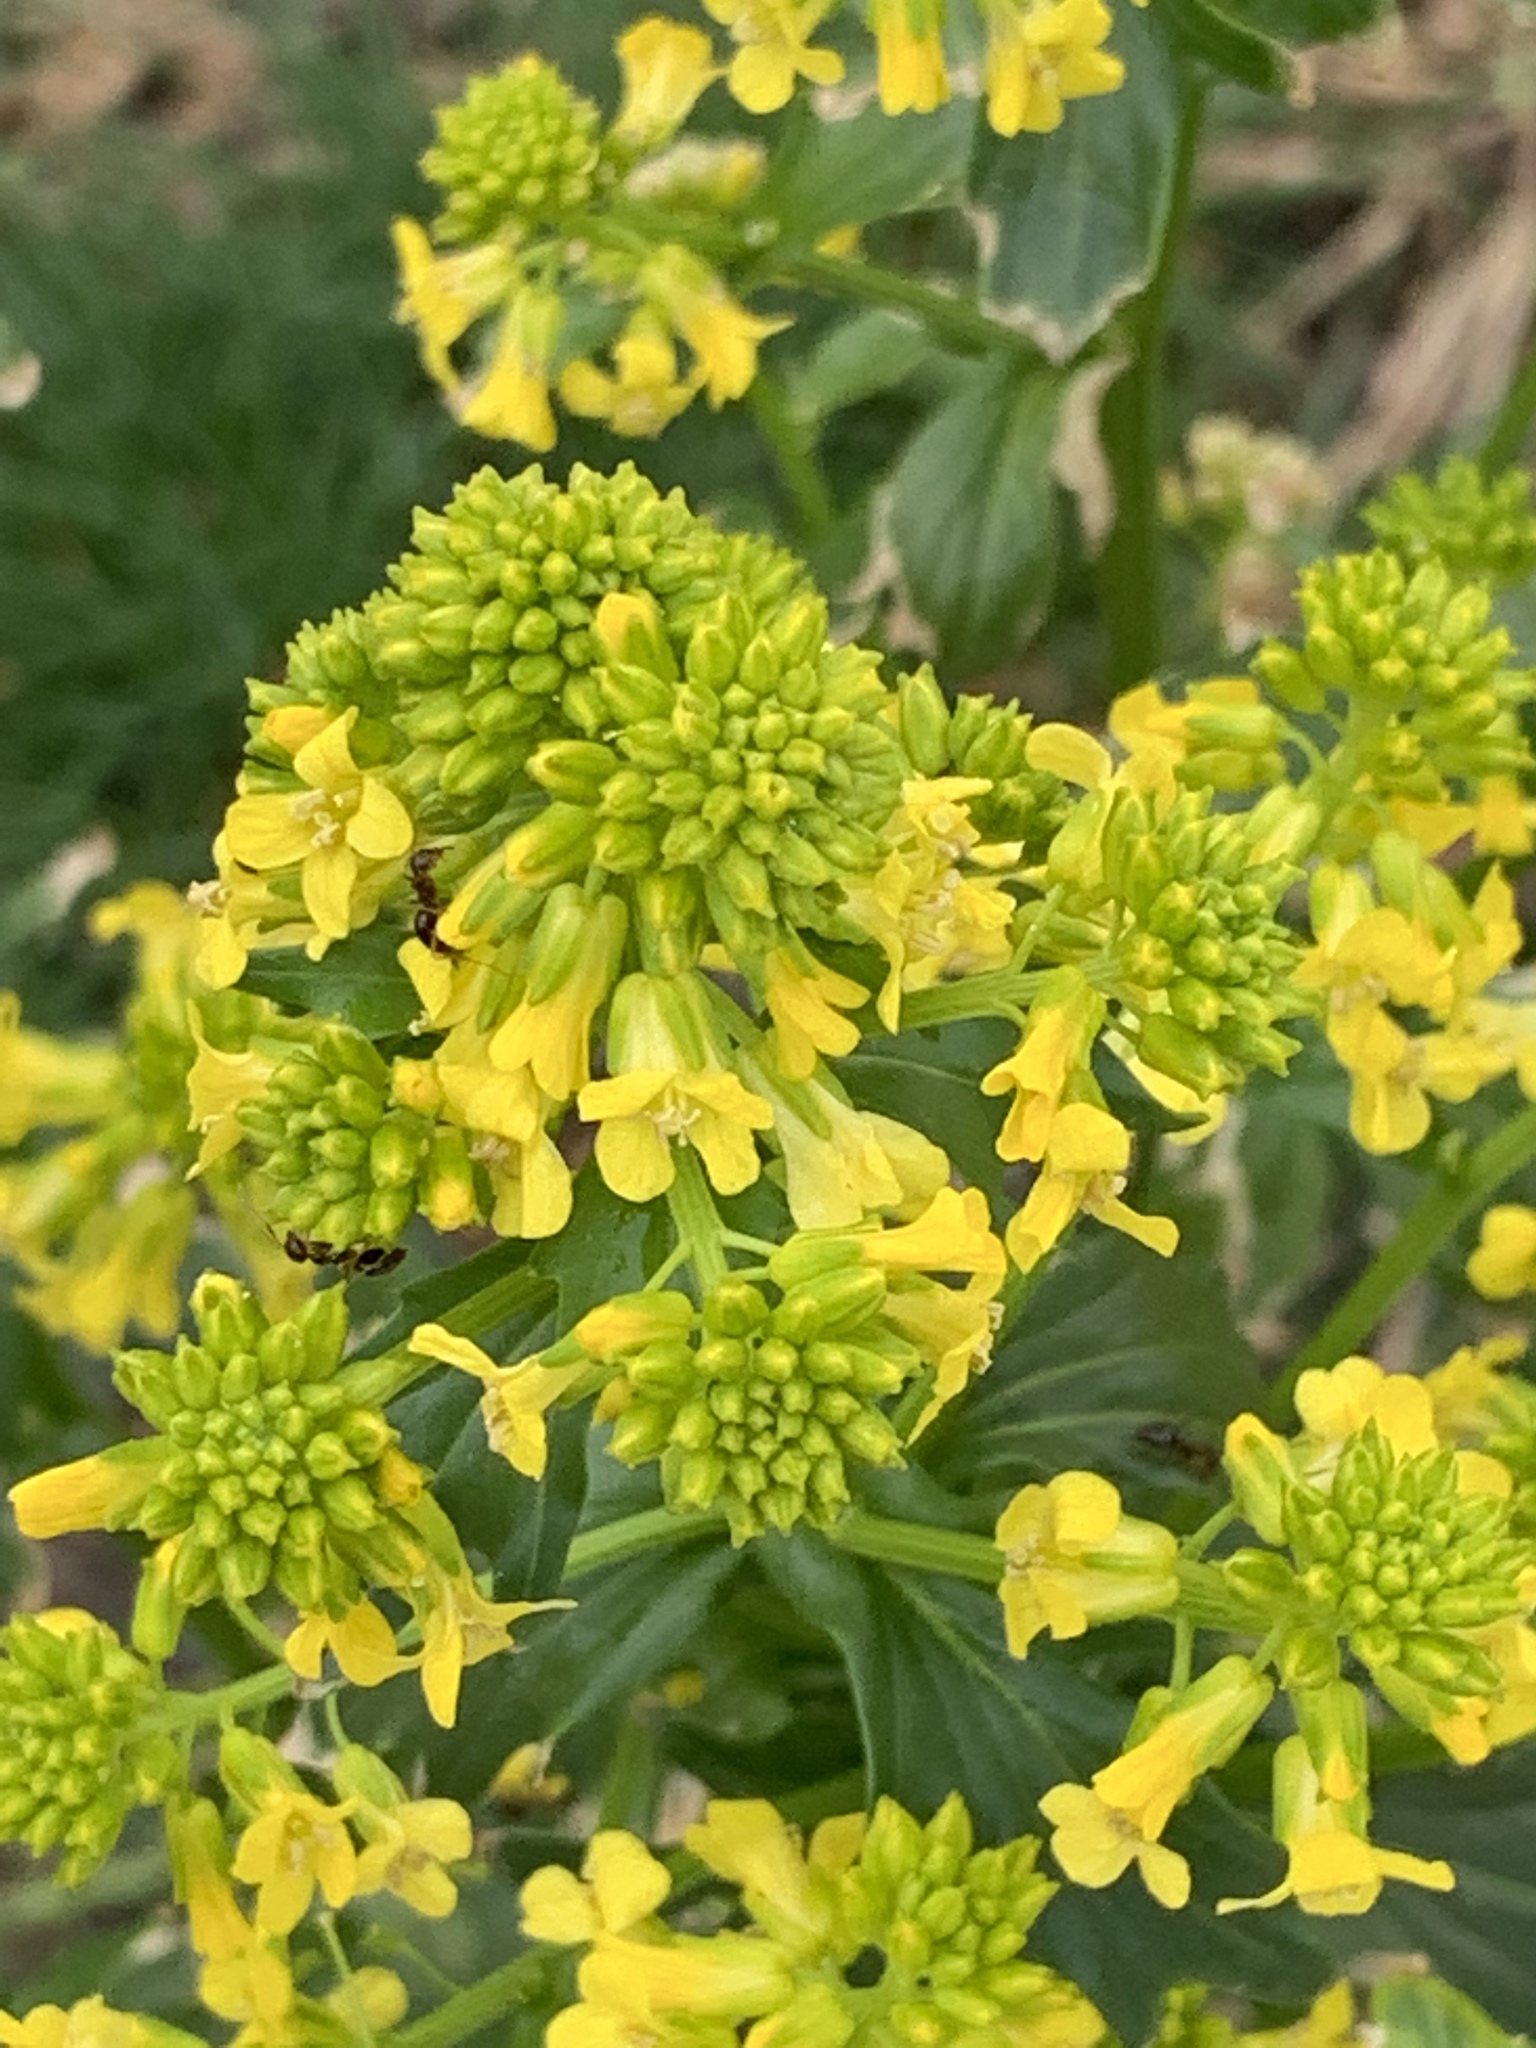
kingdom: Plantae
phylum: Tracheophyta
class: Magnoliopsida
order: Brassicales
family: Brassicaceae
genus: Barbarea
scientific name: Barbarea vulgaris
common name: Cressy-greens
